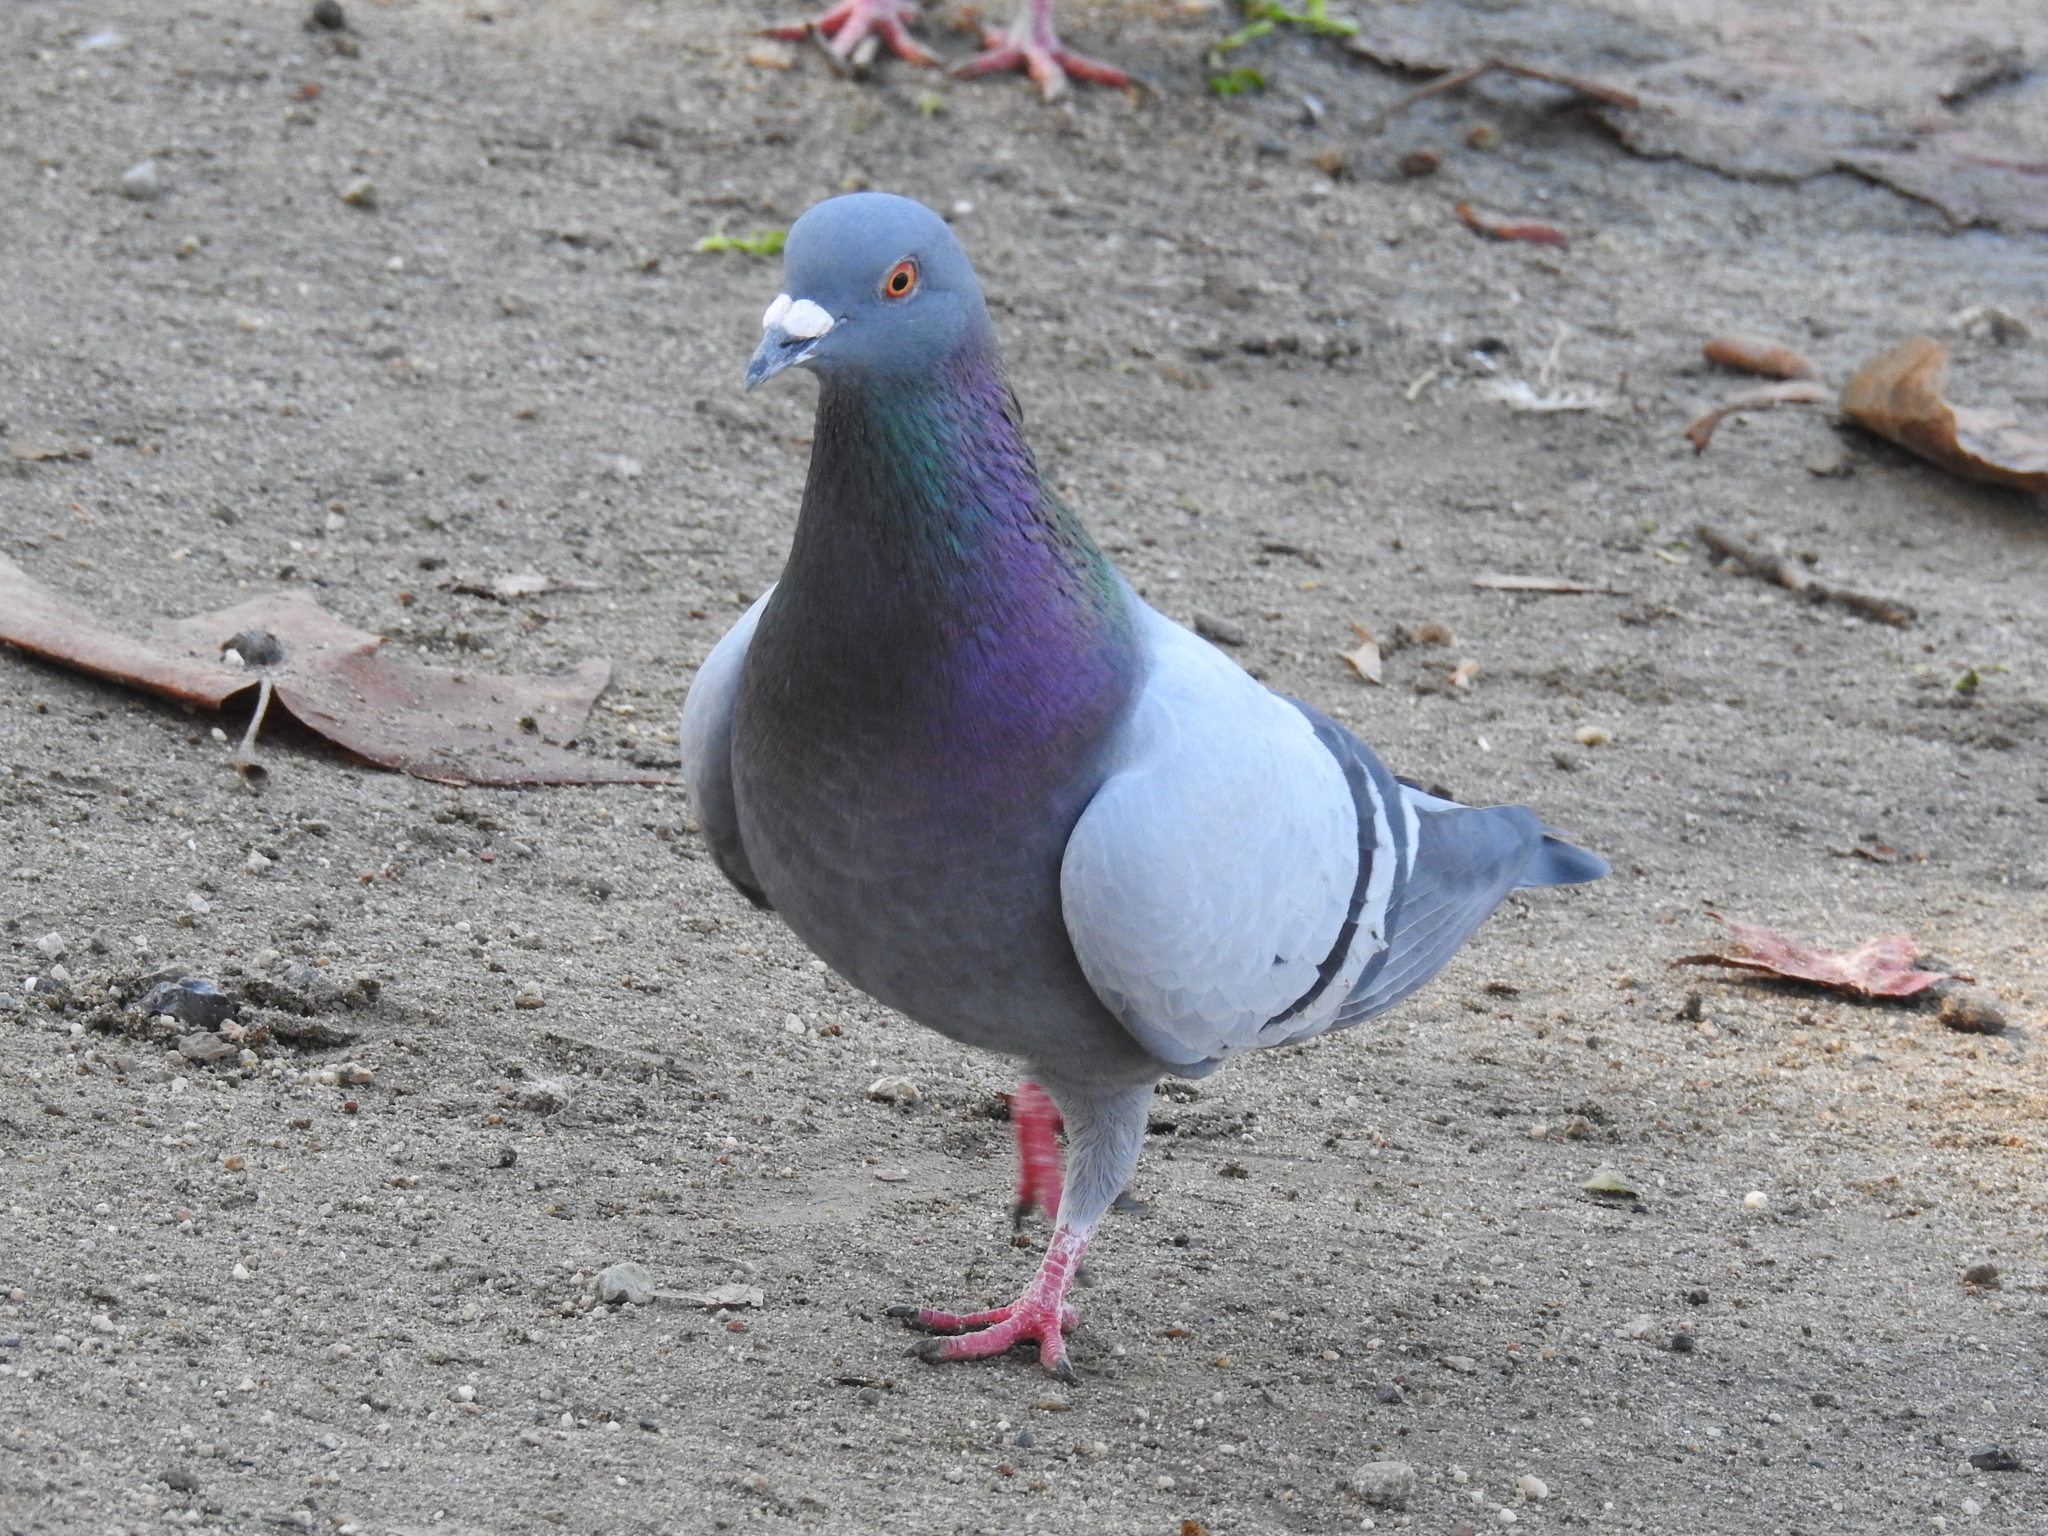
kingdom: Animalia
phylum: Chordata
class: Aves
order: Columbiformes
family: Columbidae
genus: Columba
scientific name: Columba livia
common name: Rock pigeon
